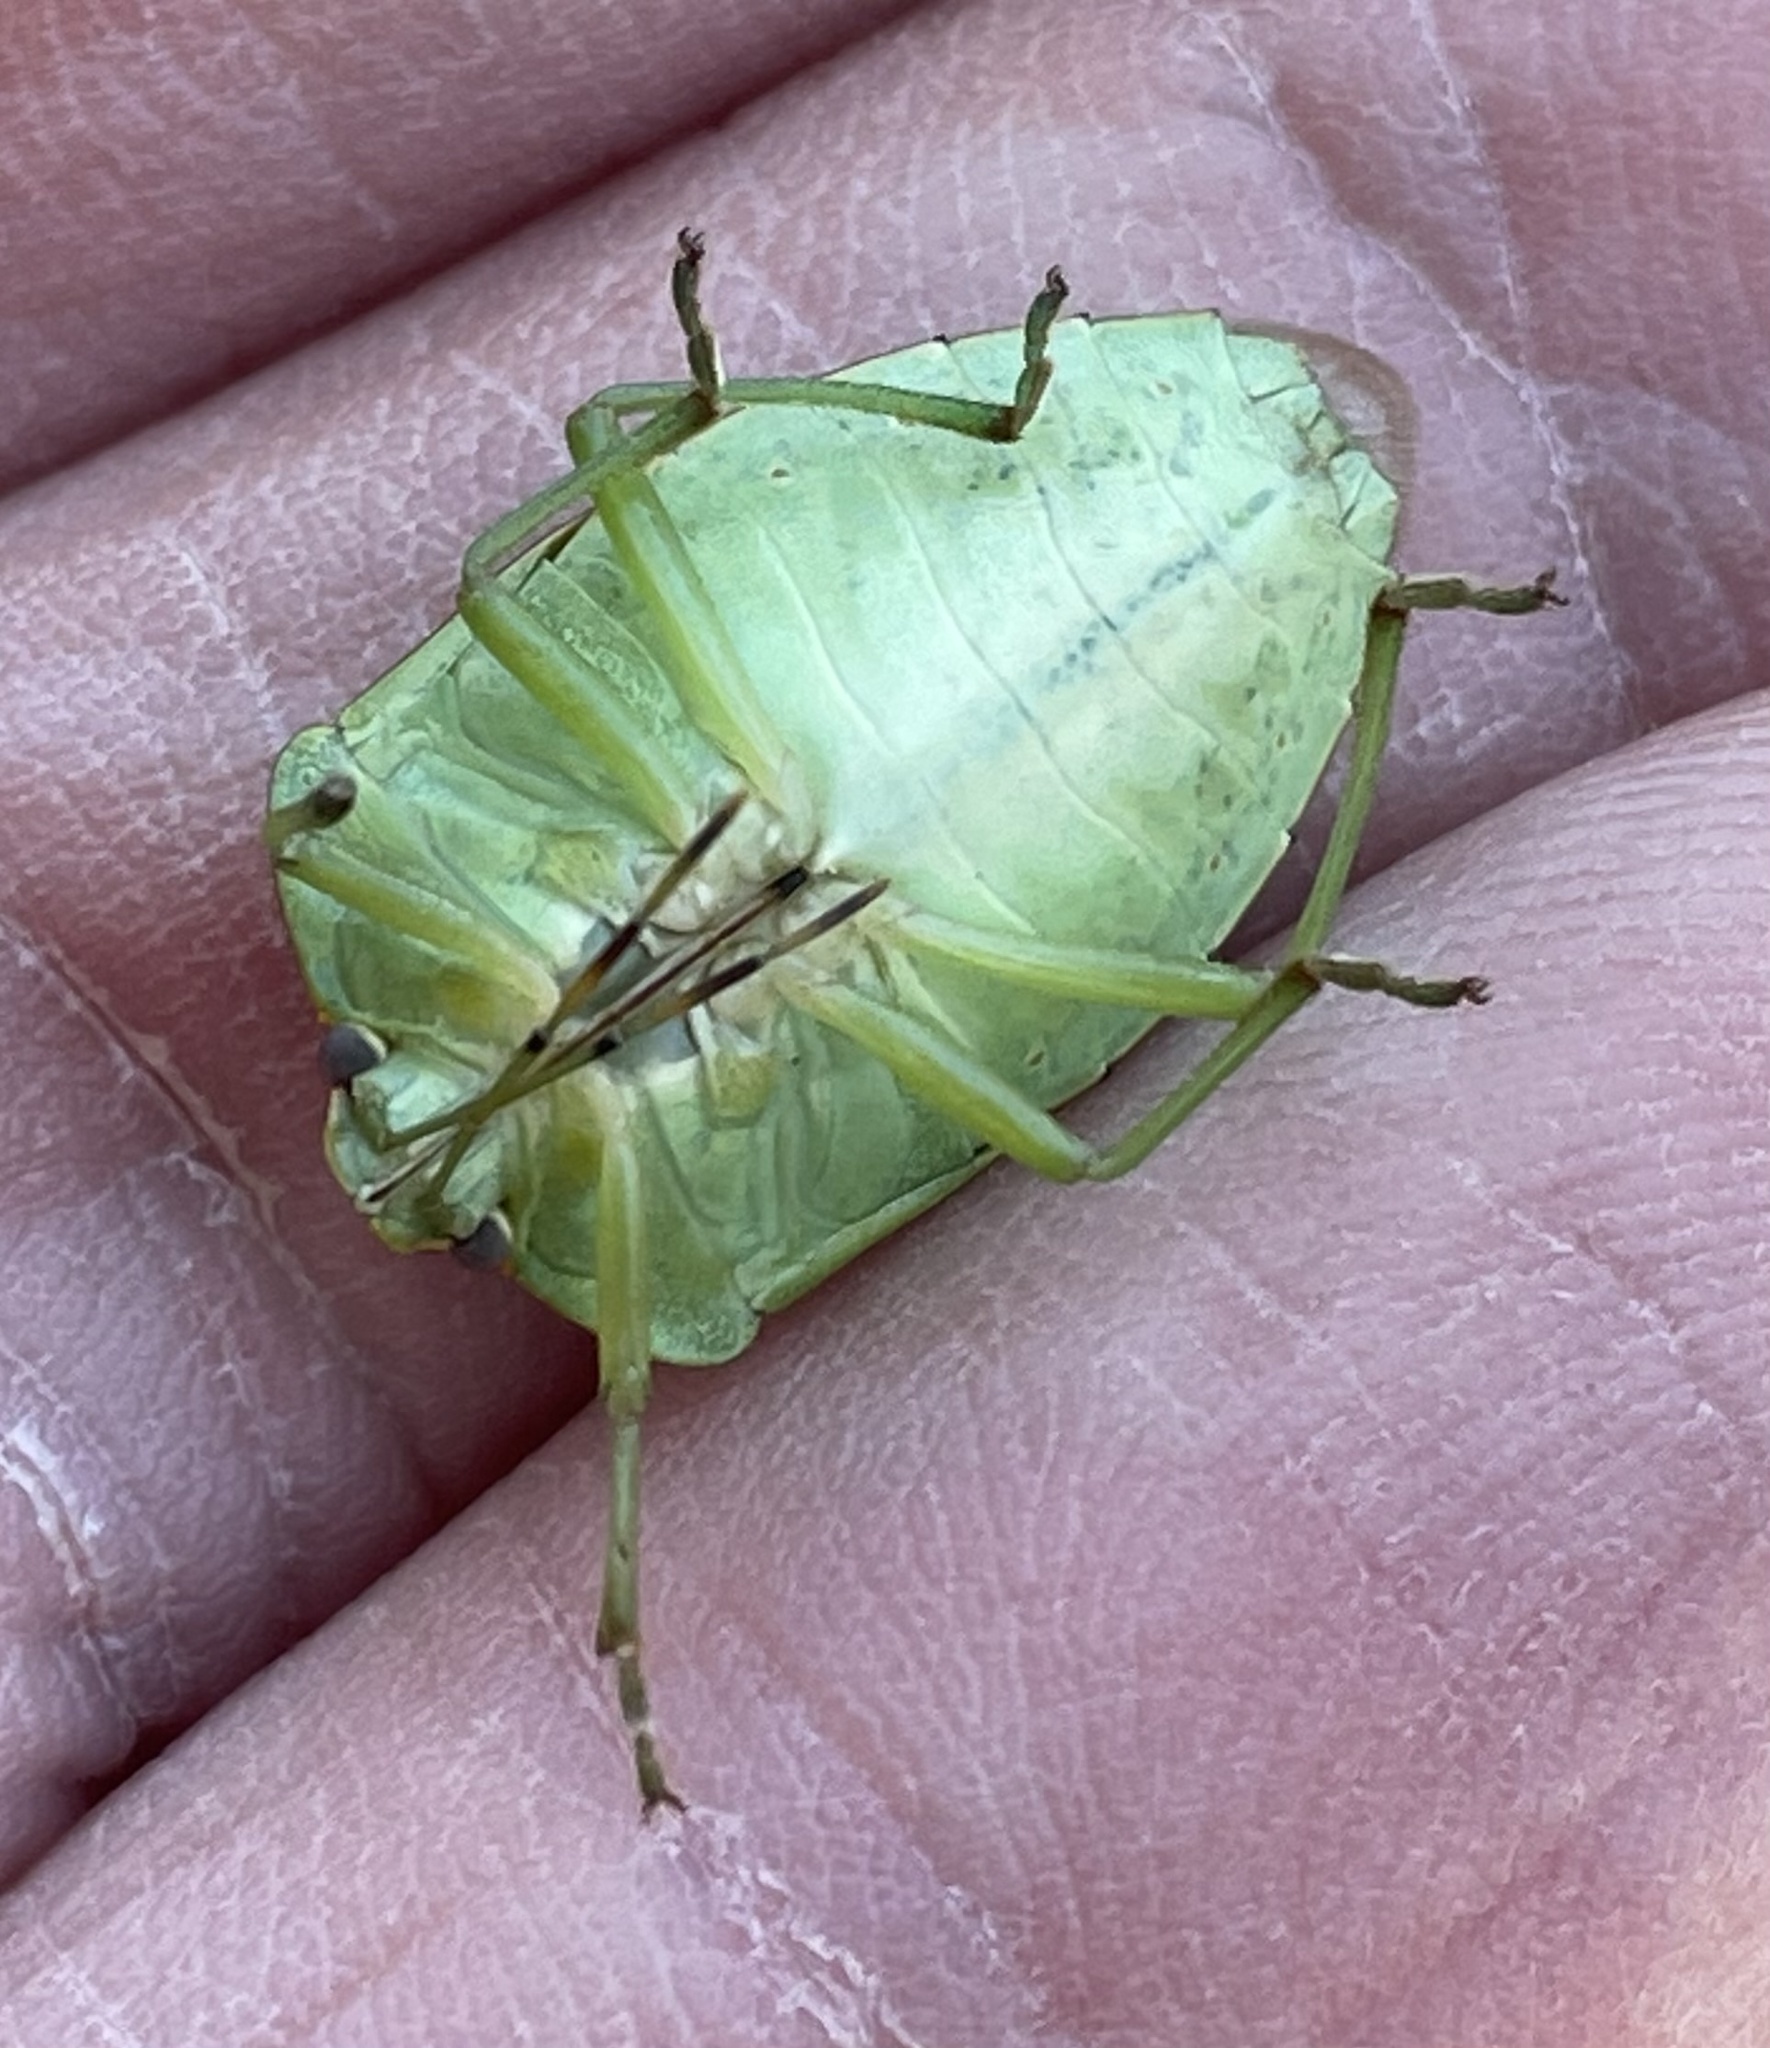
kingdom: Animalia
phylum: Arthropoda
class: Insecta
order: Hemiptera
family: Pentatomidae
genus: Chinavia
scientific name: Chinavia hilaris
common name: Green stink bug
